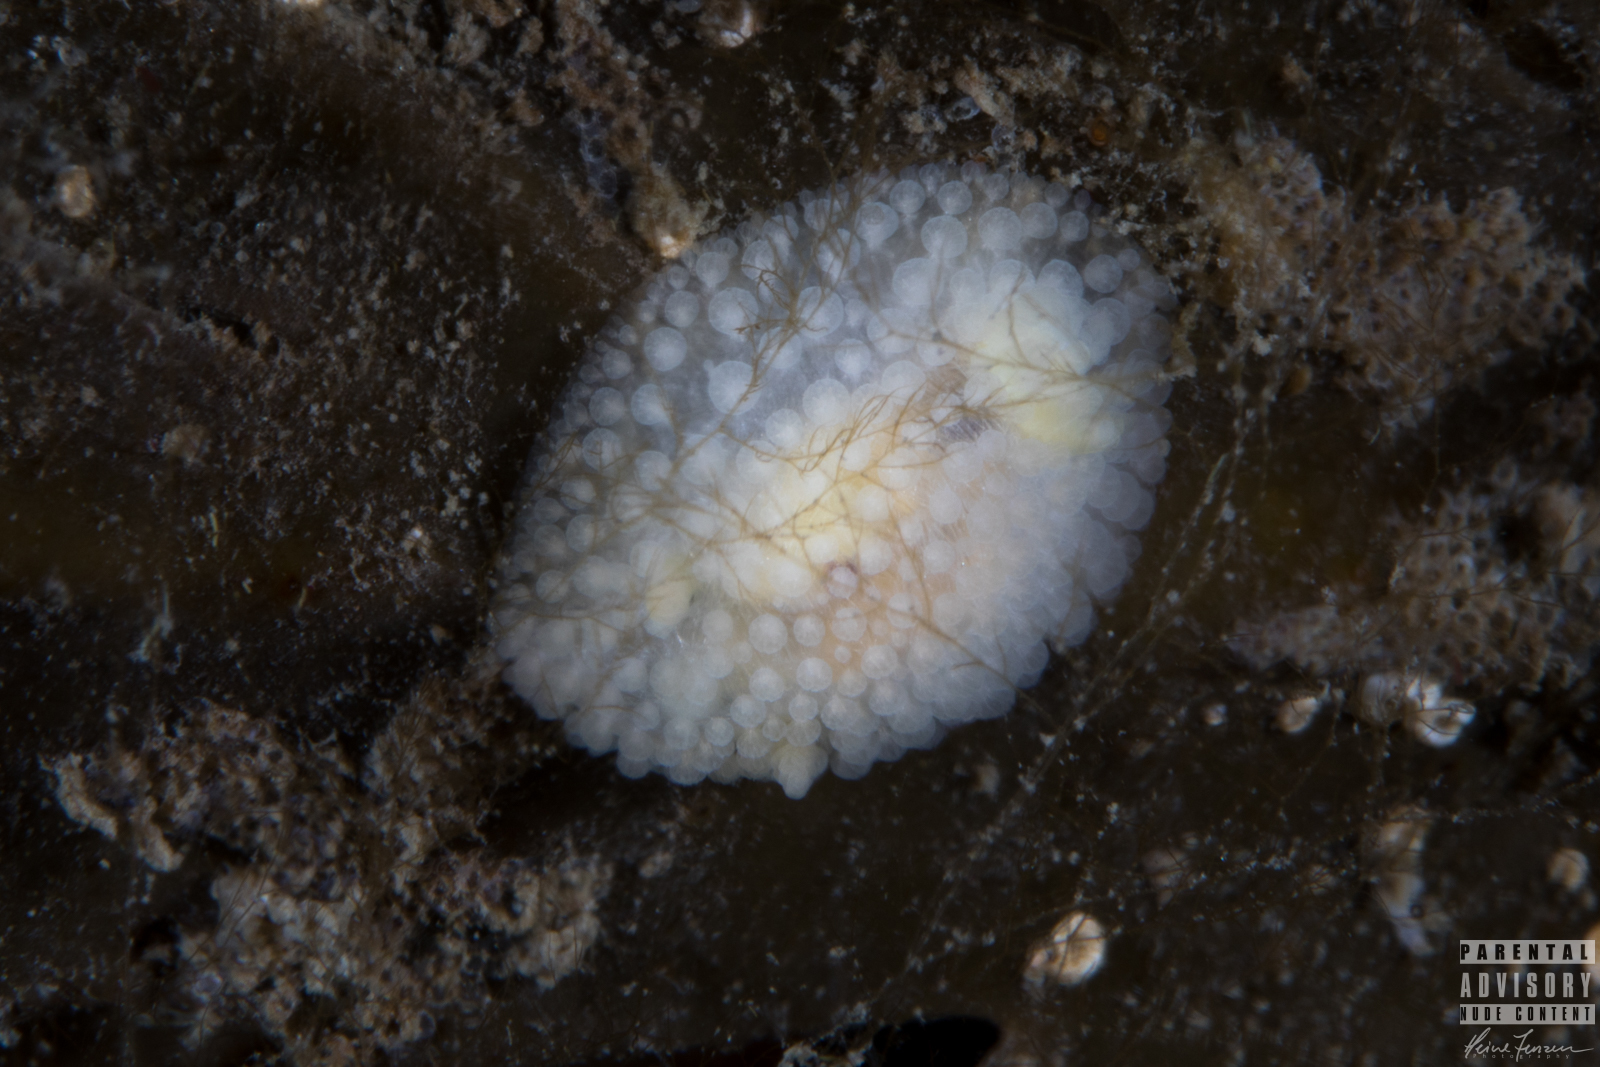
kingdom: Animalia
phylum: Mollusca
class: Gastropoda
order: Nudibranchia
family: Onchidorididae
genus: Onchidoris
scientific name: Onchidoris muricata
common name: Rough doris
